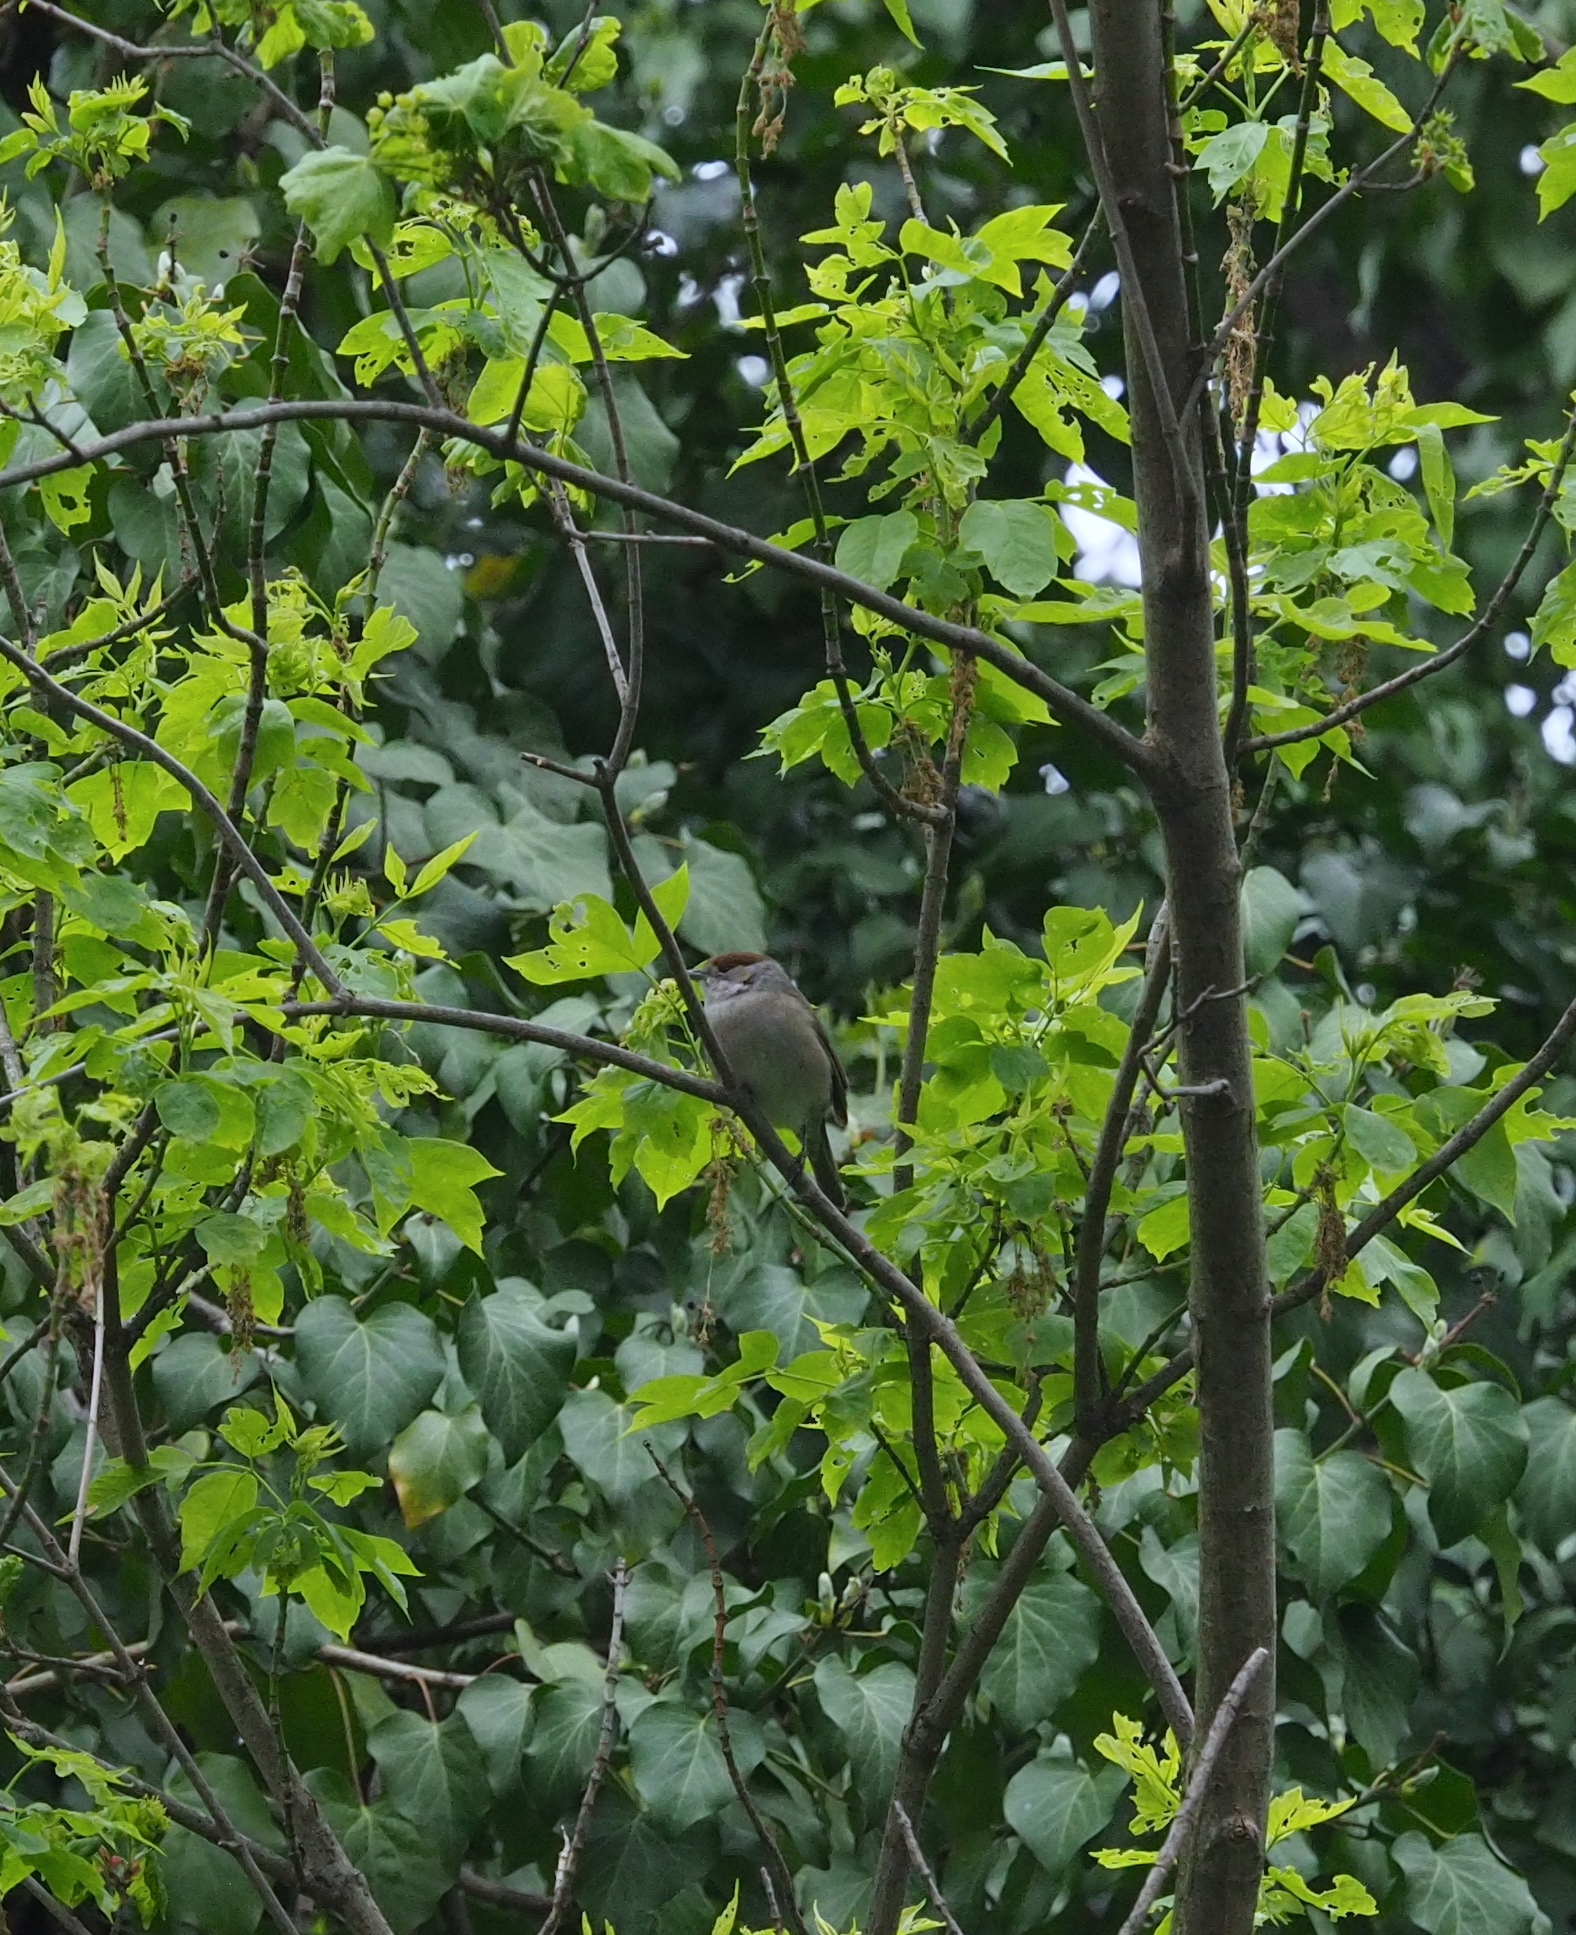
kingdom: Animalia
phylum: Chordata
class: Aves
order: Passeriformes
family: Sylviidae
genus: Sylvia
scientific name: Sylvia atricapilla
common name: Eurasian blackcap
